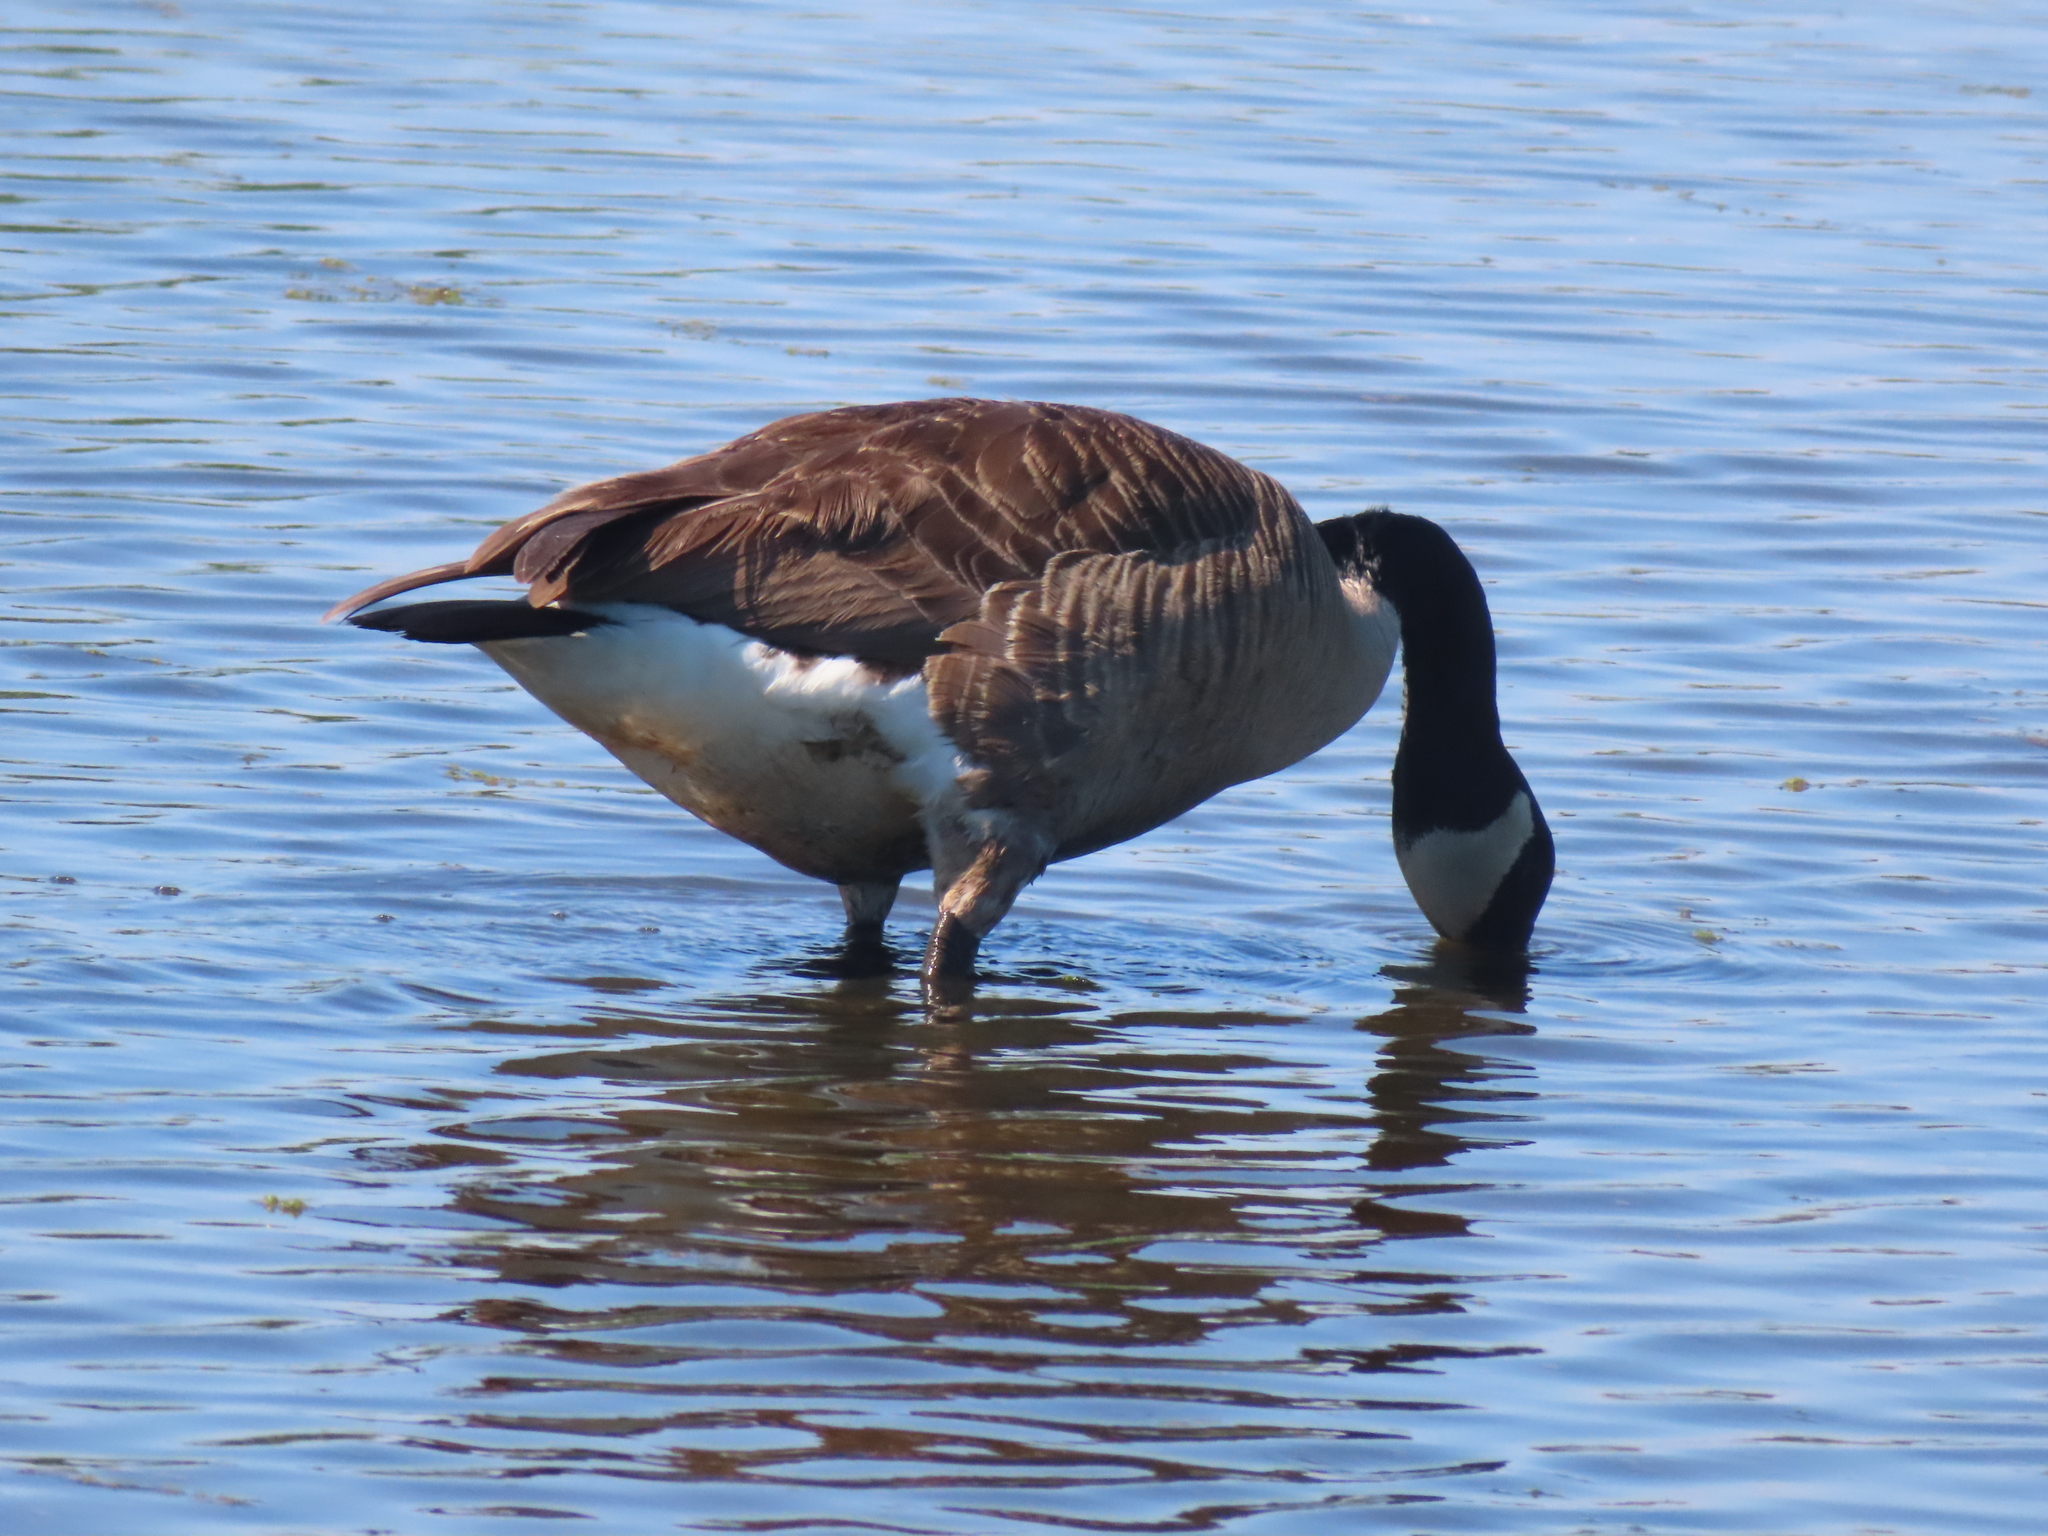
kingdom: Animalia
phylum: Chordata
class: Aves
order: Anseriformes
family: Anatidae
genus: Branta
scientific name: Branta canadensis
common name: Canada goose
